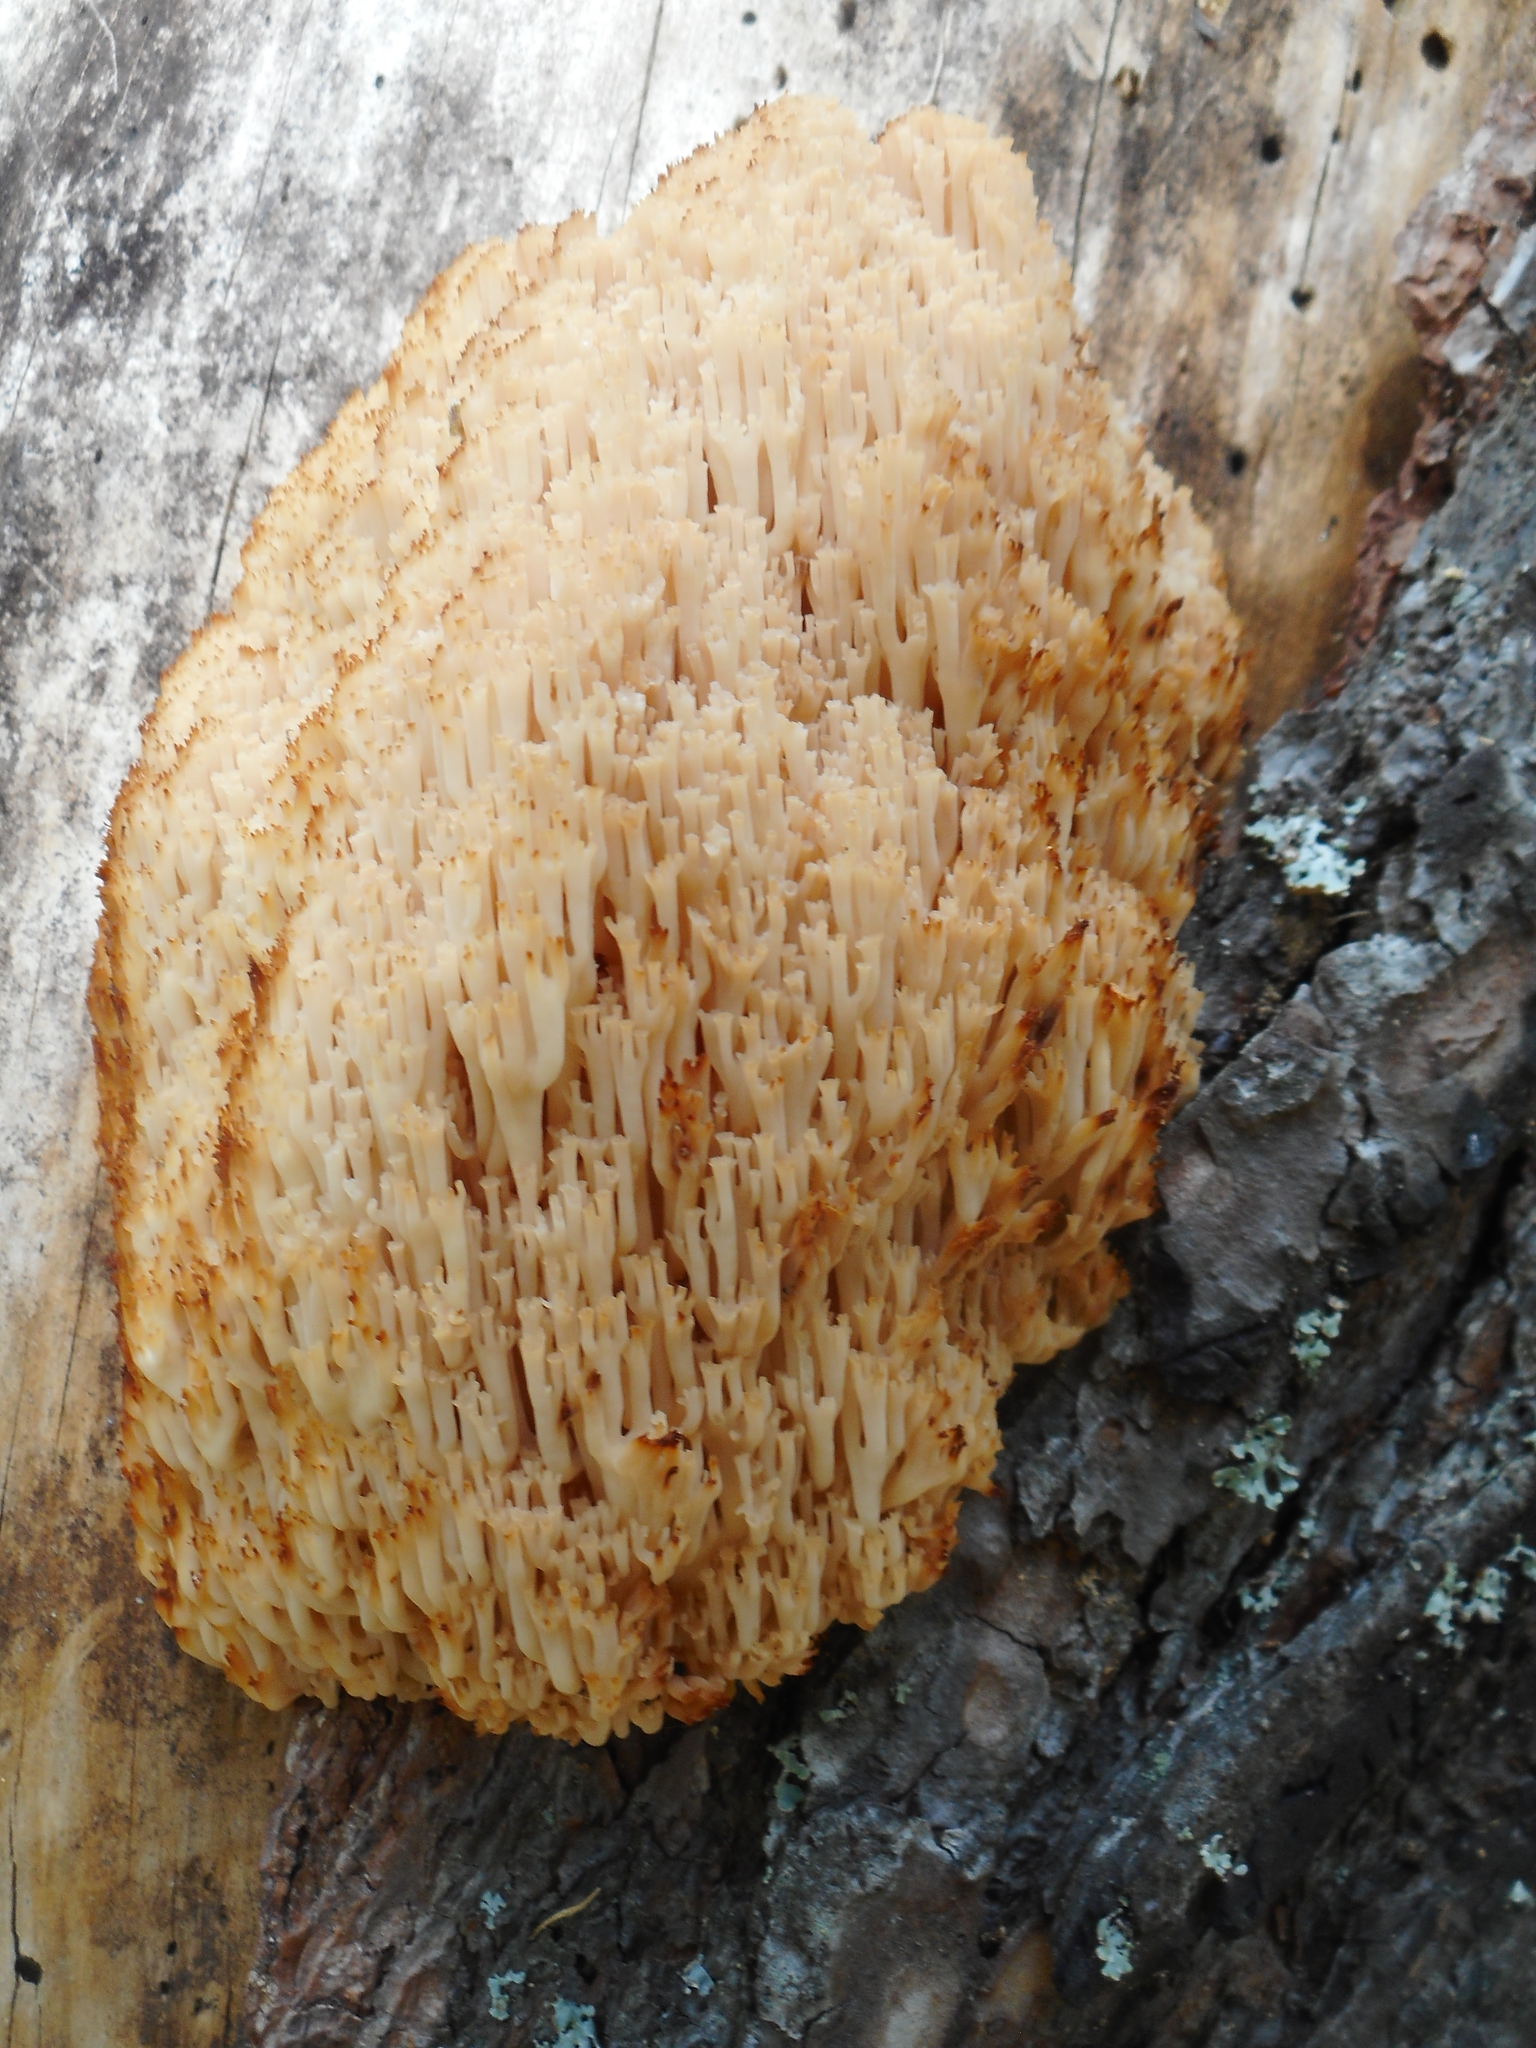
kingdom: Fungi
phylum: Basidiomycota
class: Agaricomycetes
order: Russulales
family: Auriscalpiaceae
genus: Artomyces
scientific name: Artomyces microsporus
